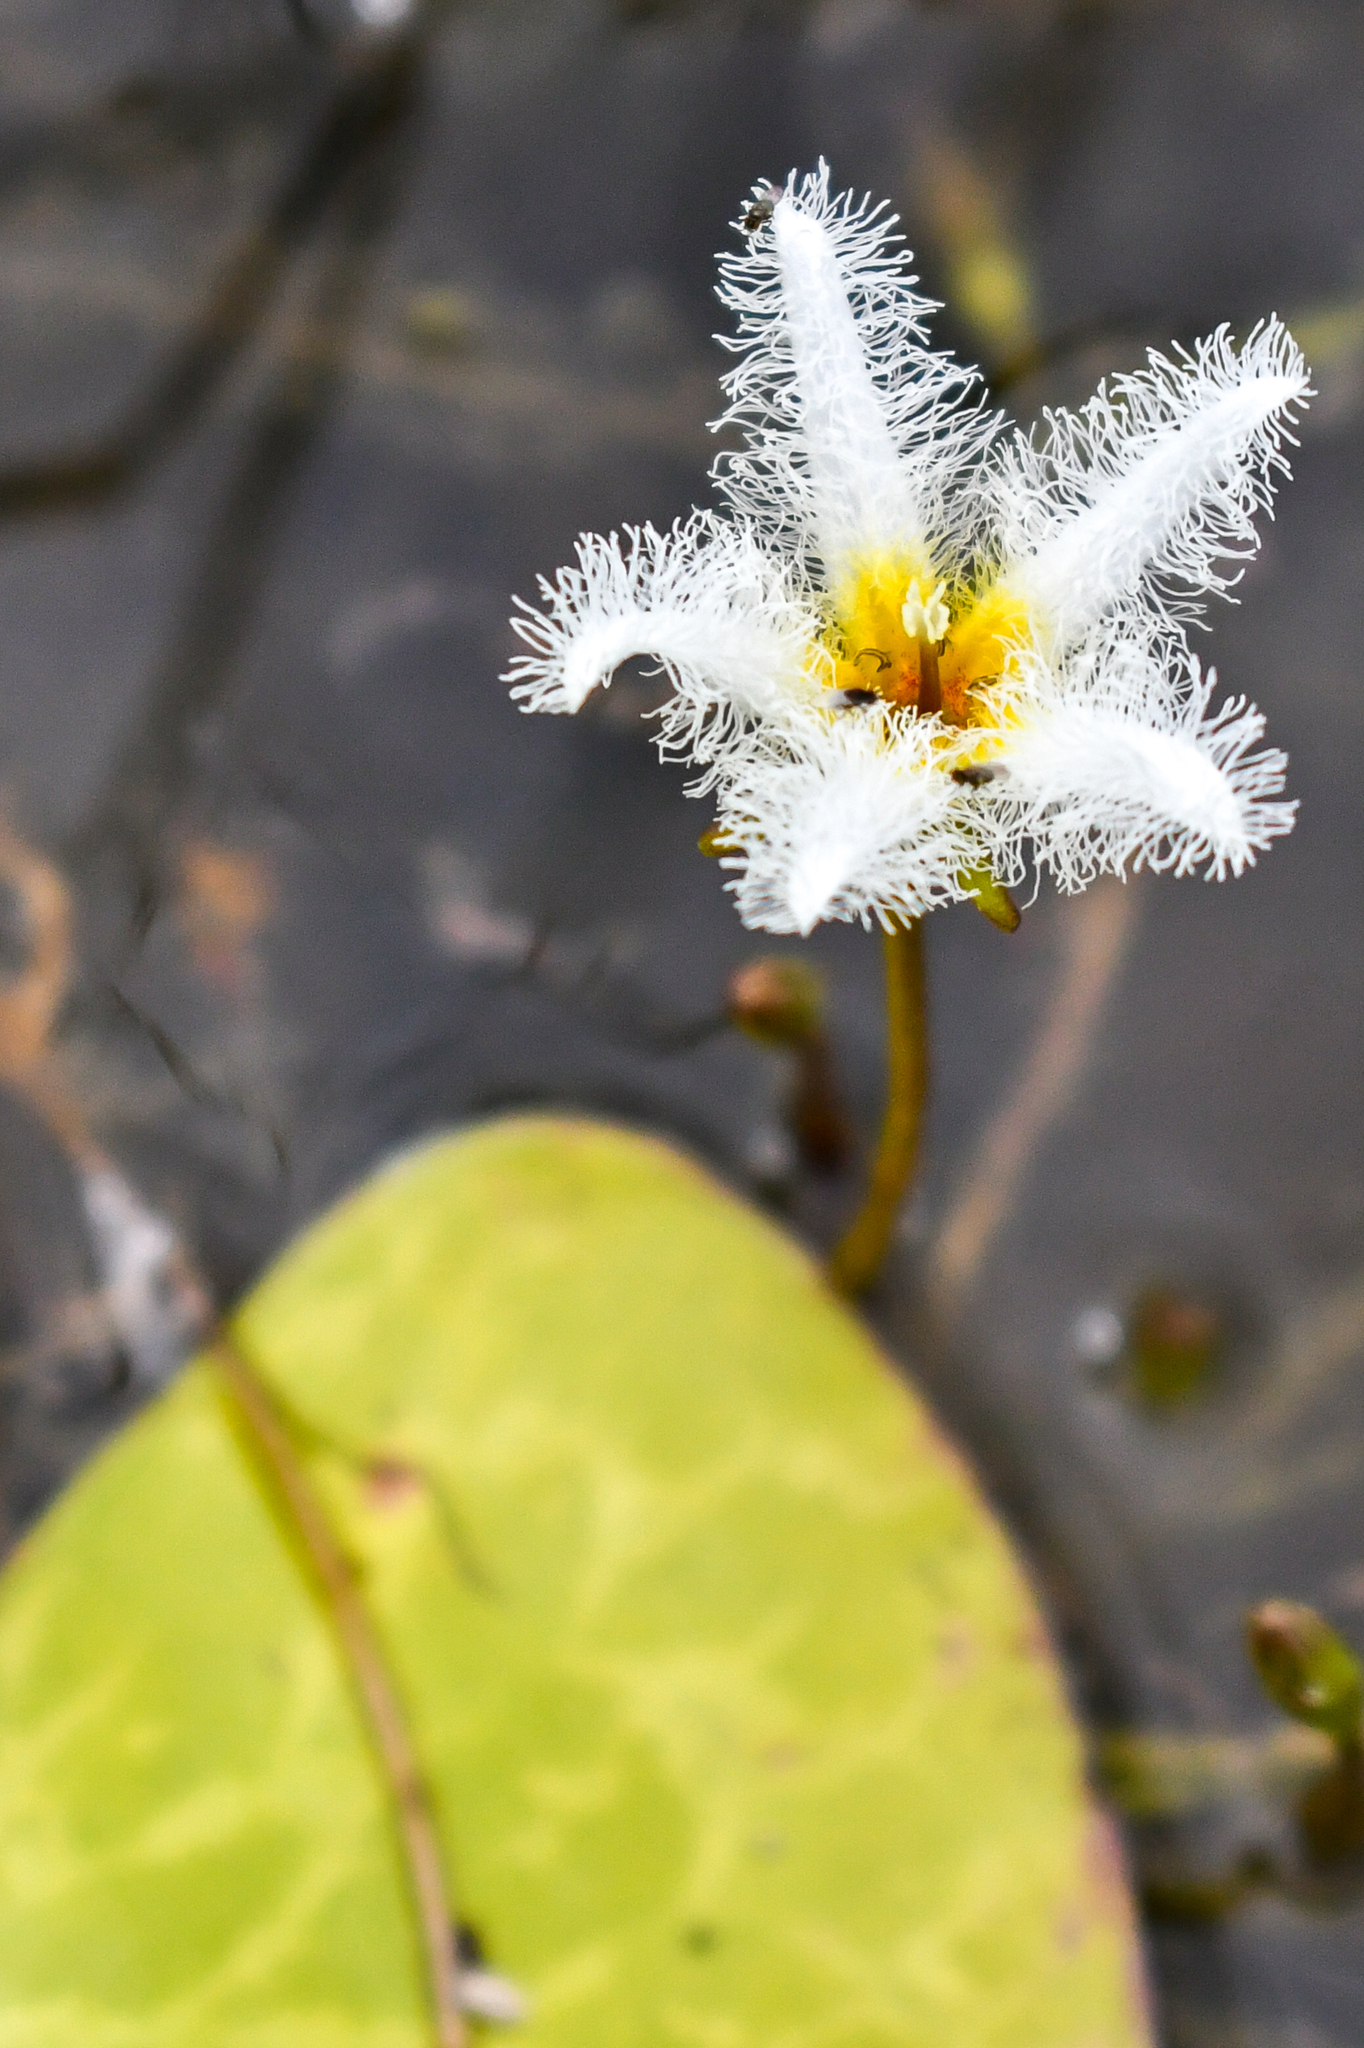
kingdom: Plantae
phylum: Tracheophyta
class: Magnoliopsida
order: Asterales
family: Menyanthaceae
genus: Nymphoides
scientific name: Nymphoides humboldtiana
